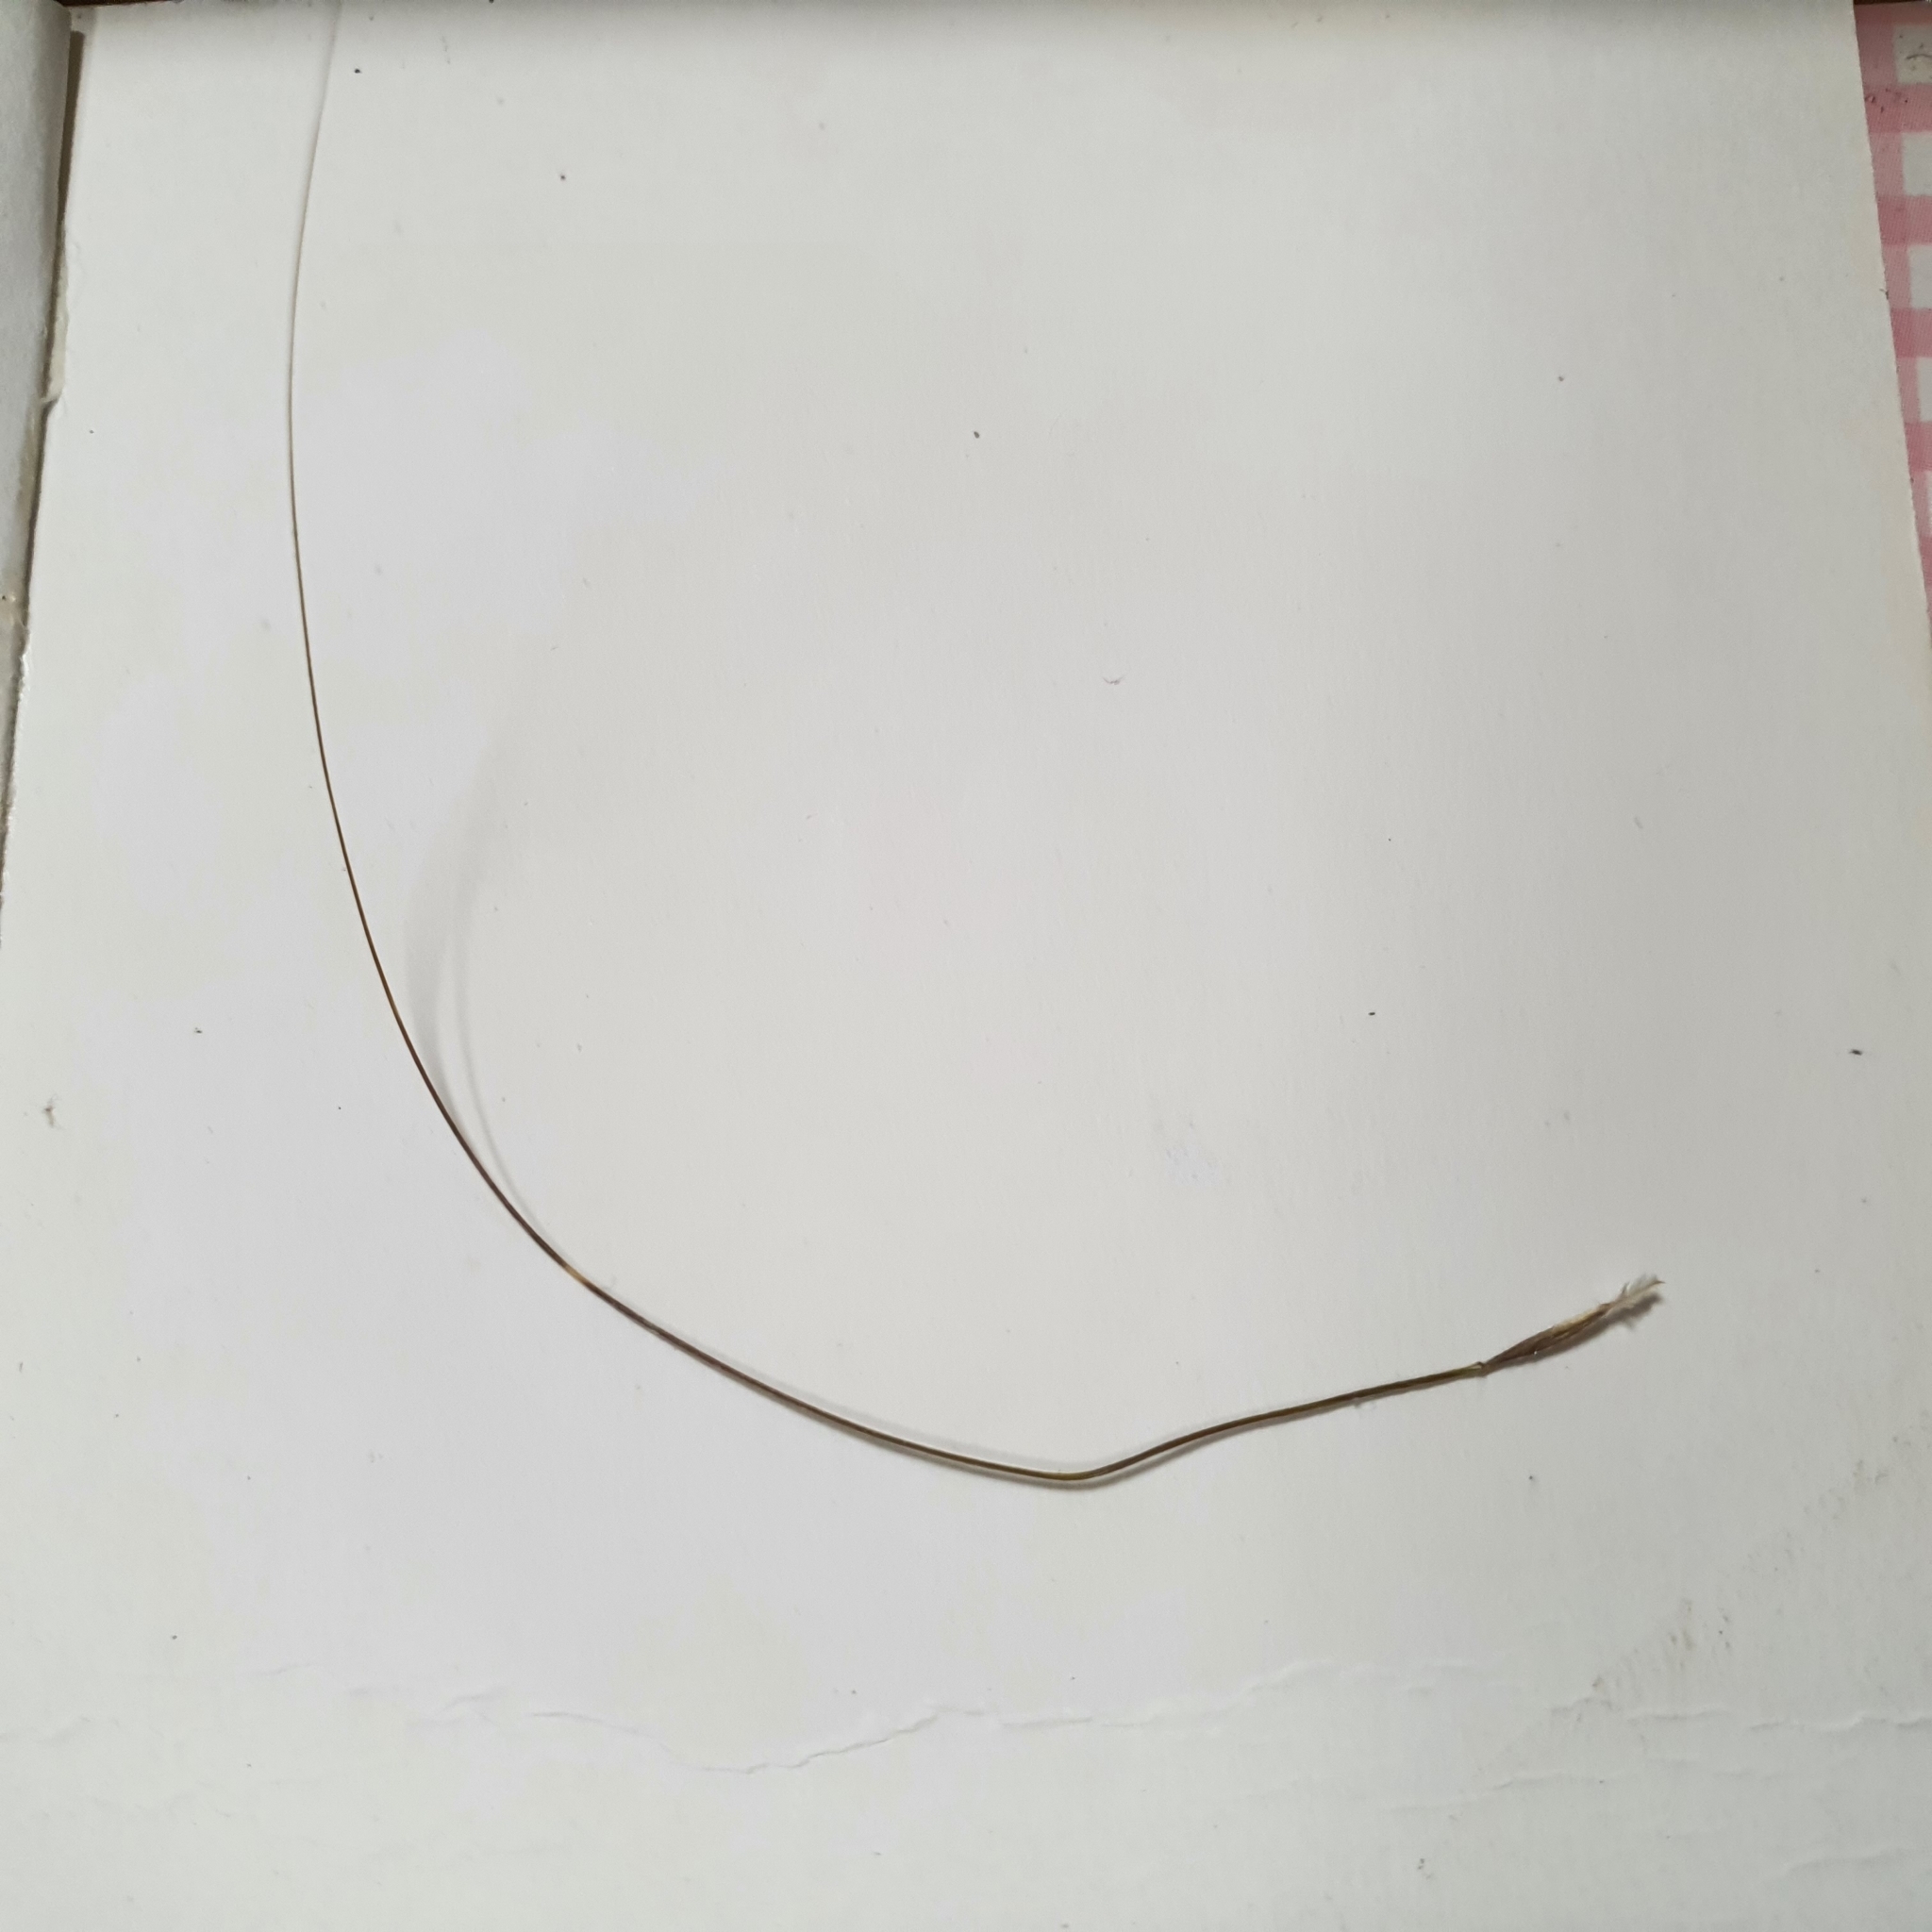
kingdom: Plantae
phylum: Tracheophyta
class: Liliopsida
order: Poales
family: Poaceae
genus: Austrostipa
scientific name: Austrostipa nodosa
